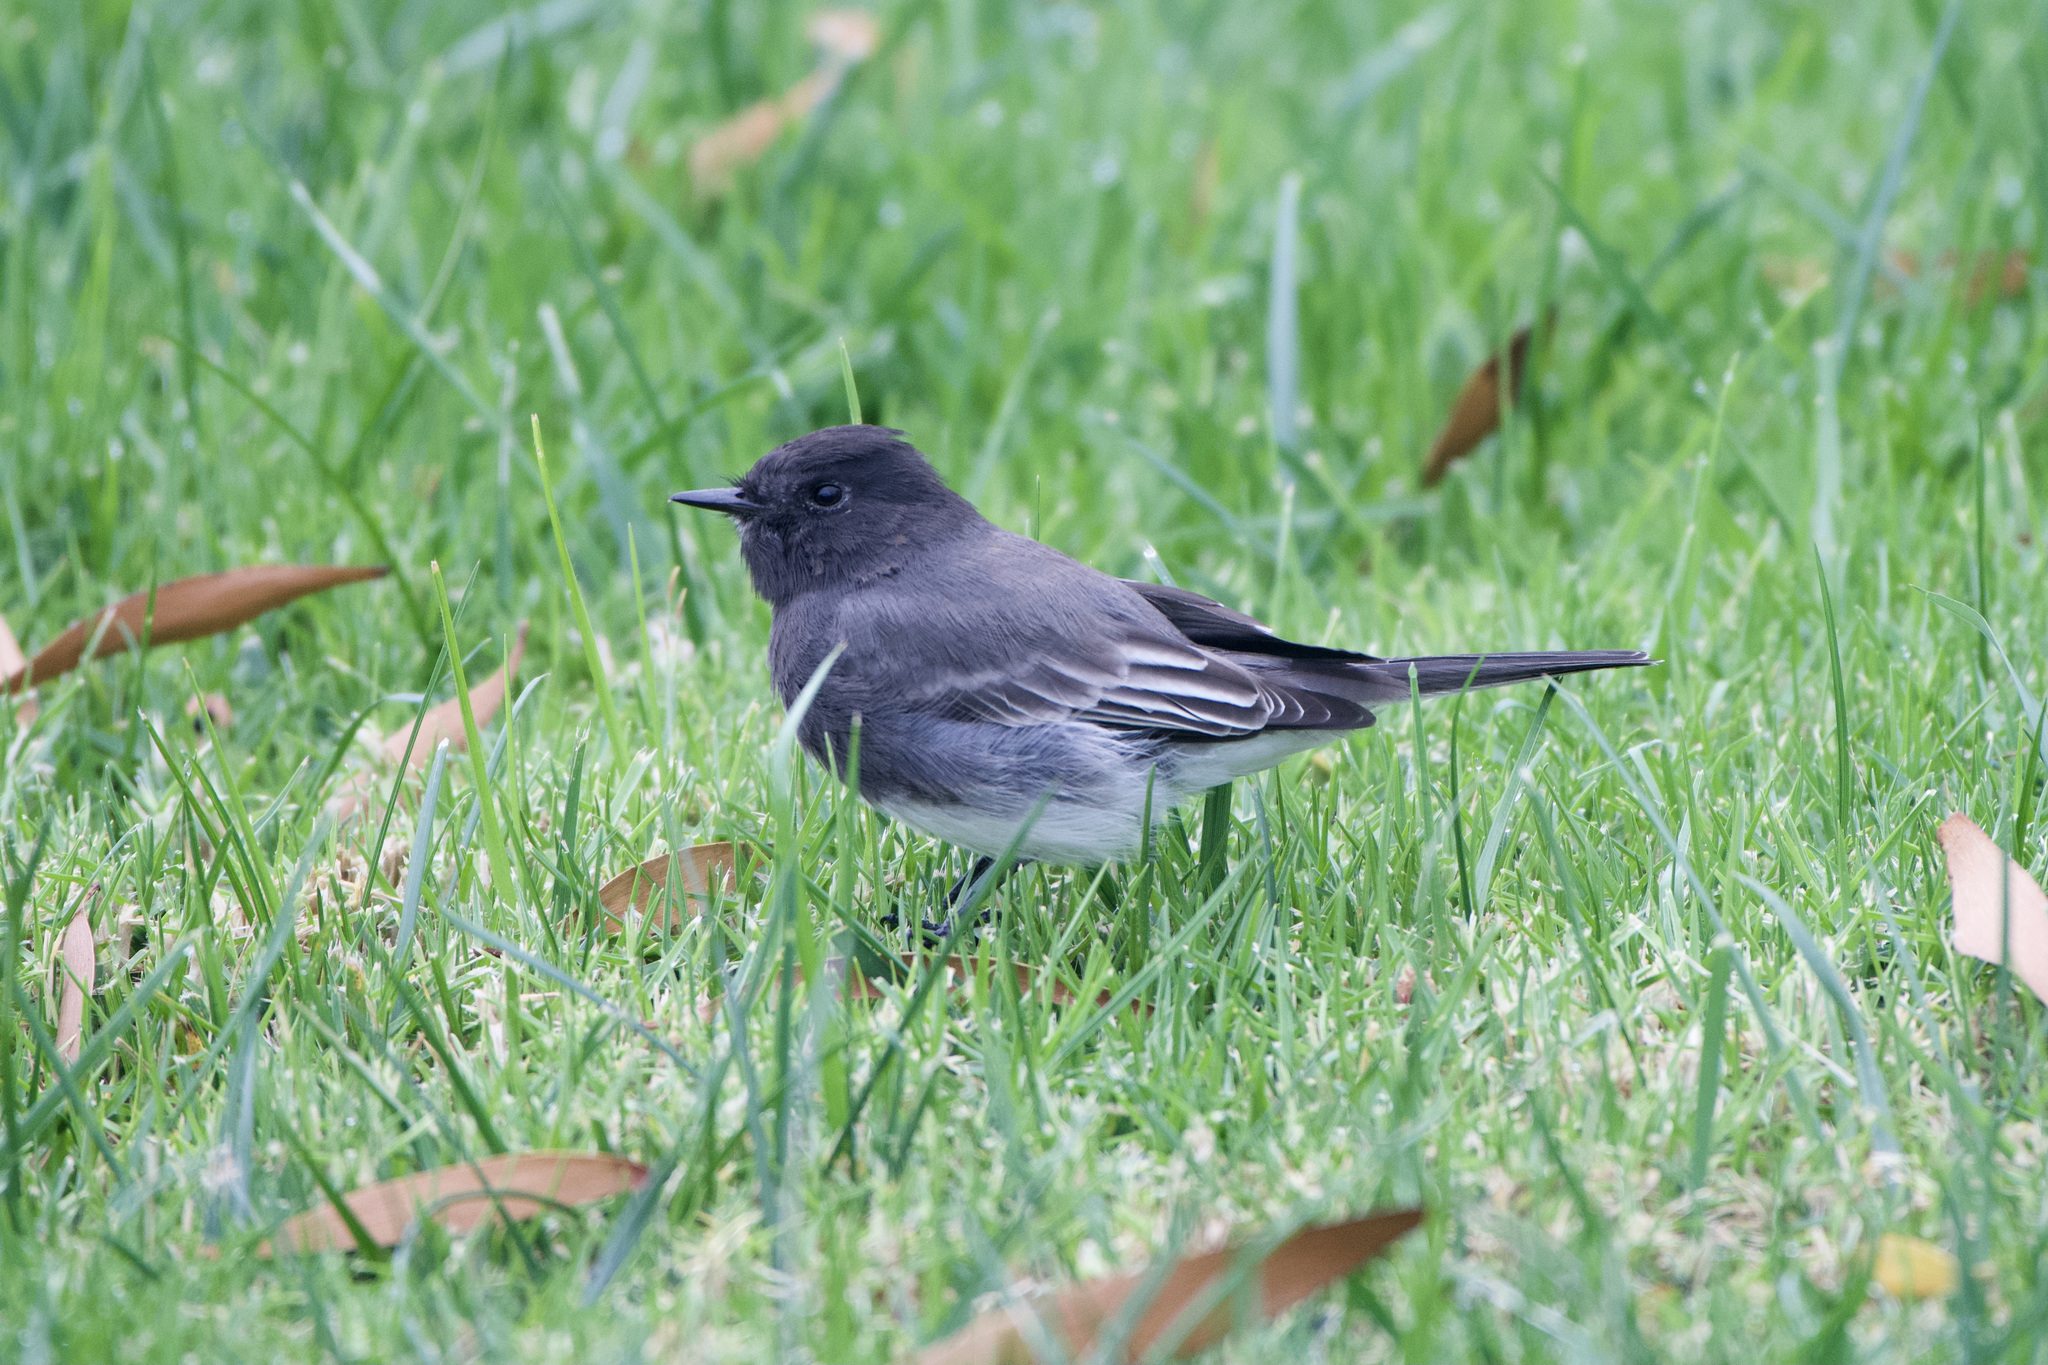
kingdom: Animalia
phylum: Chordata
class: Aves
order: Passeriformes
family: Tyrannidae
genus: Sayornis
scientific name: Sayornis nigricans
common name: Black phoebe
